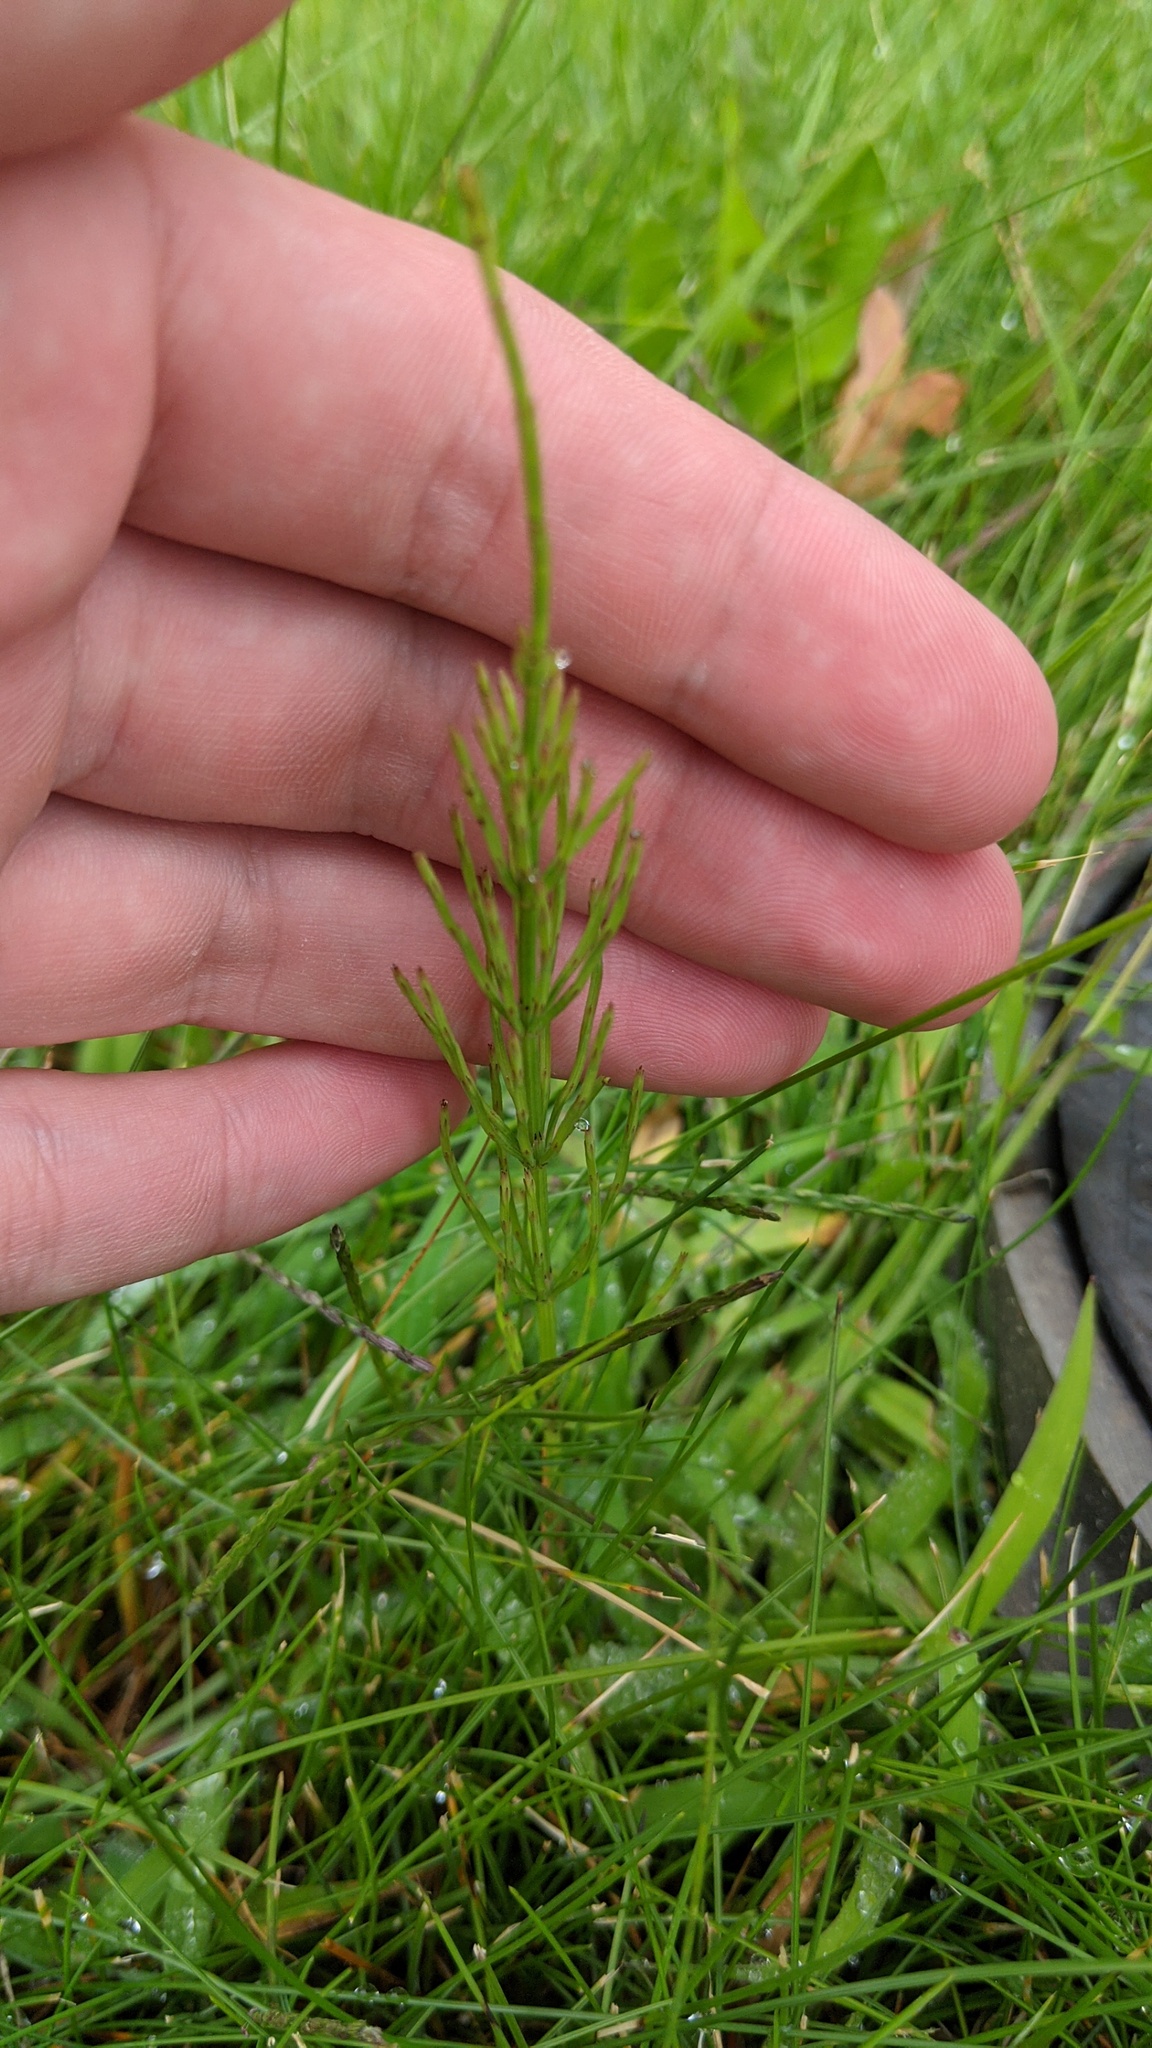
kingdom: Plantae
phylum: Tracheophyta
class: Polypodiopsida
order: Equisetales
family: Equisetaceae
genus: Equisetum
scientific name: Equisetum arvense
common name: Field horsetail
